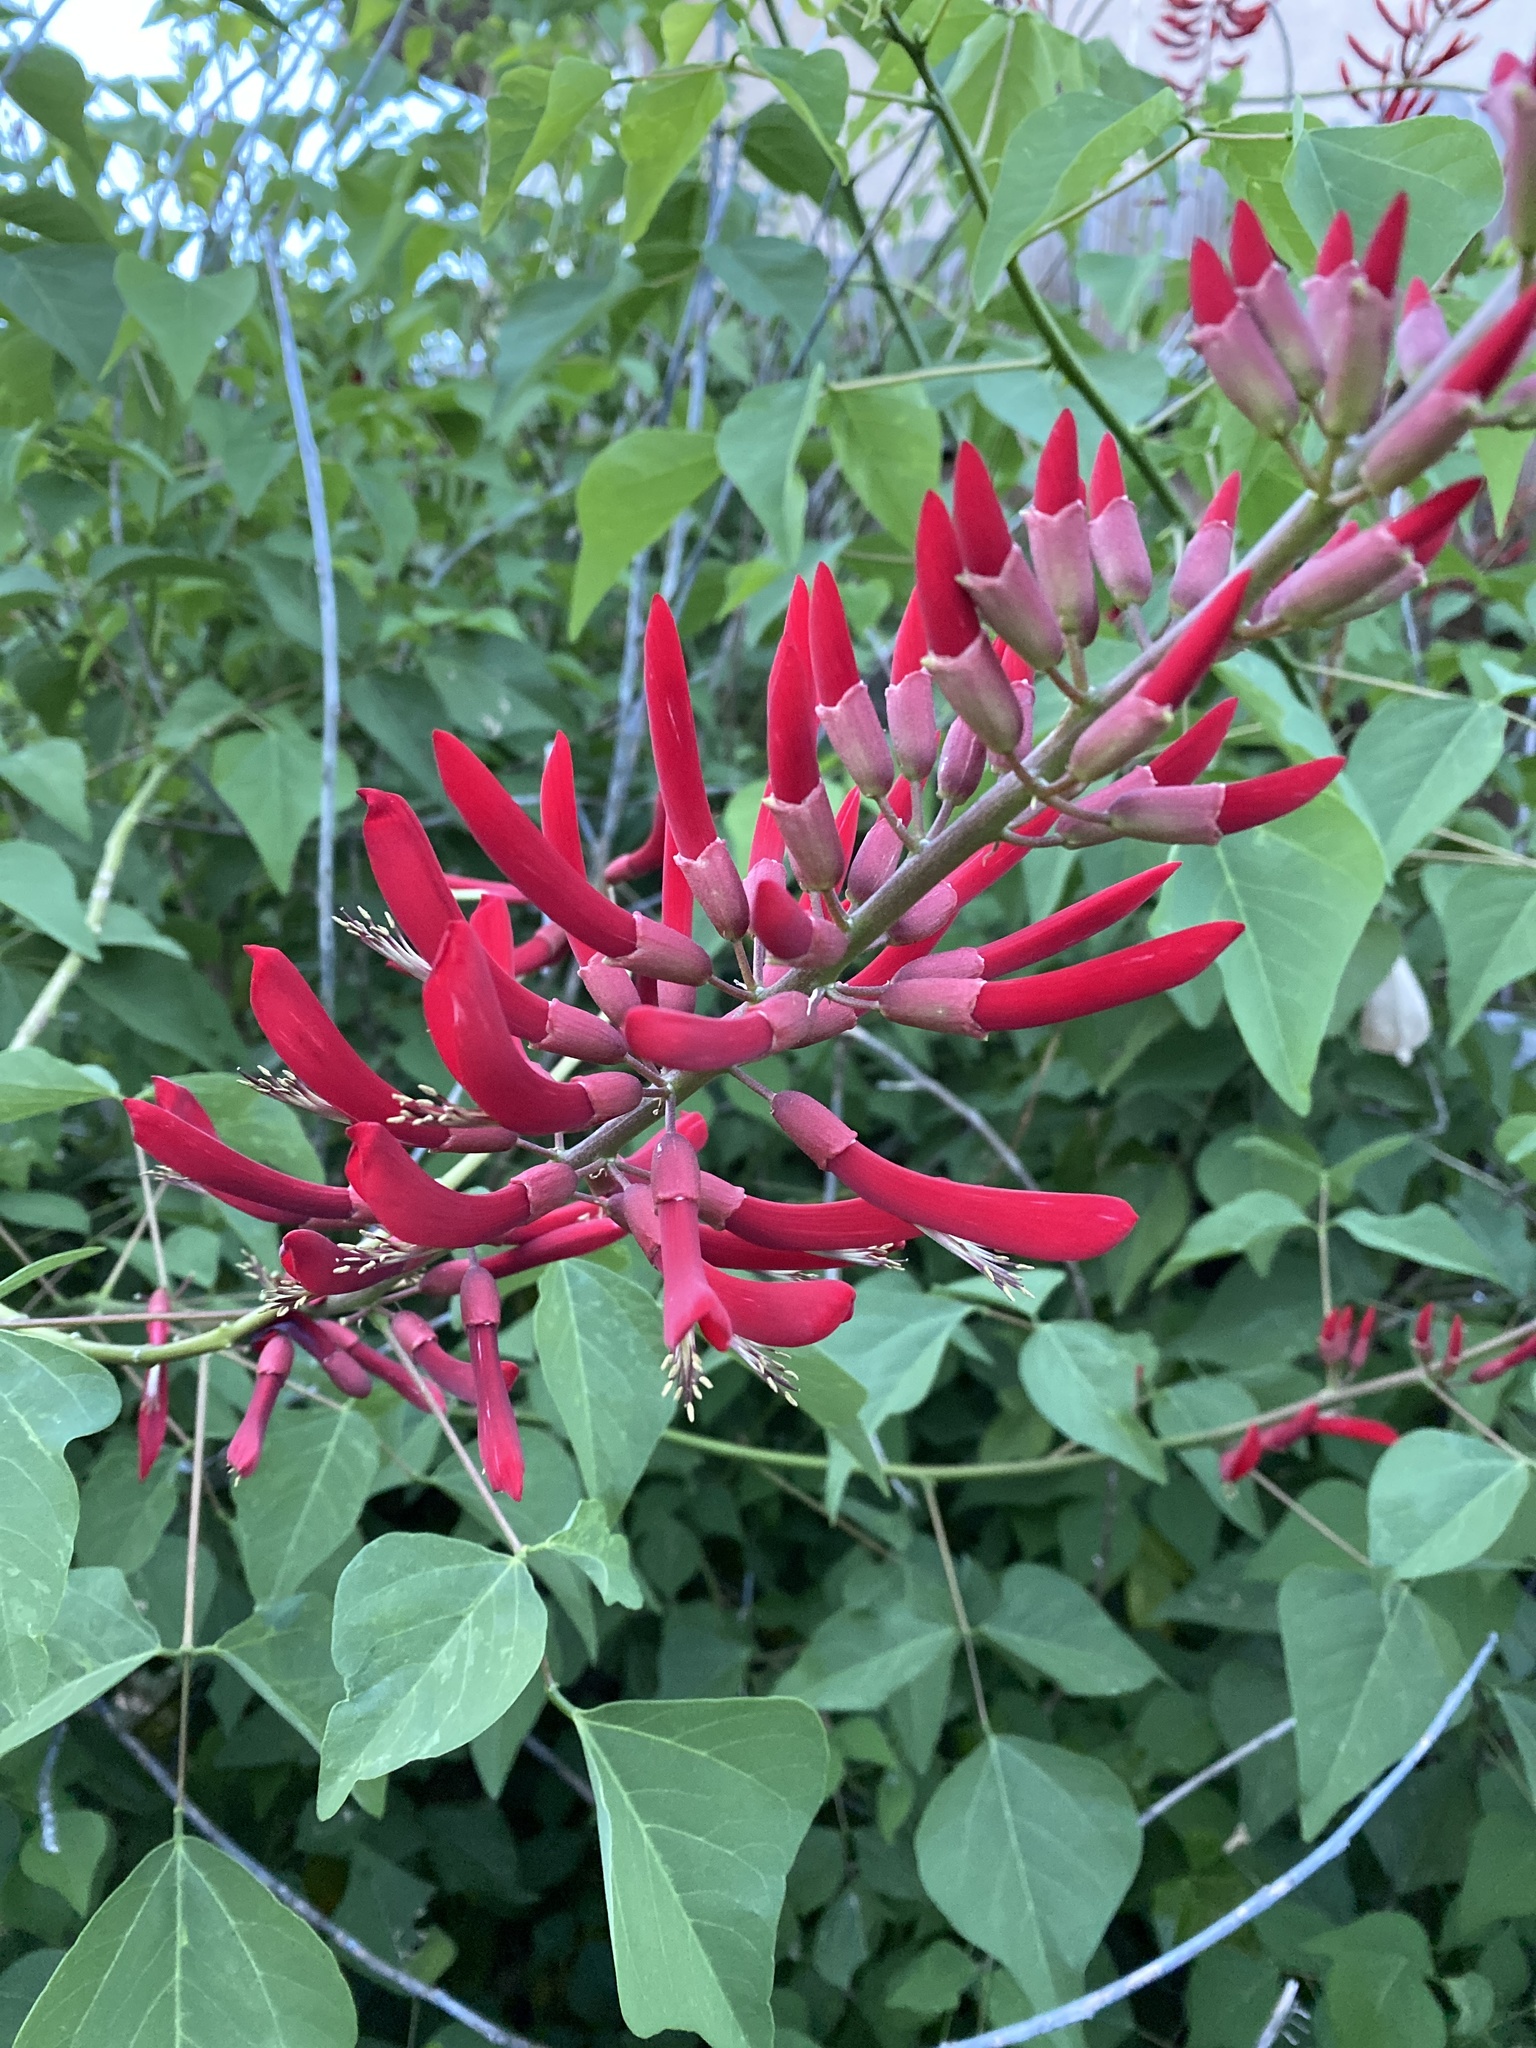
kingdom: Plantae
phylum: Tracheophyta
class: Magnoliopsida
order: Fabales
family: Fabaceae
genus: Erythrina
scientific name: Erythrina herbacea
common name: Coral-bean
